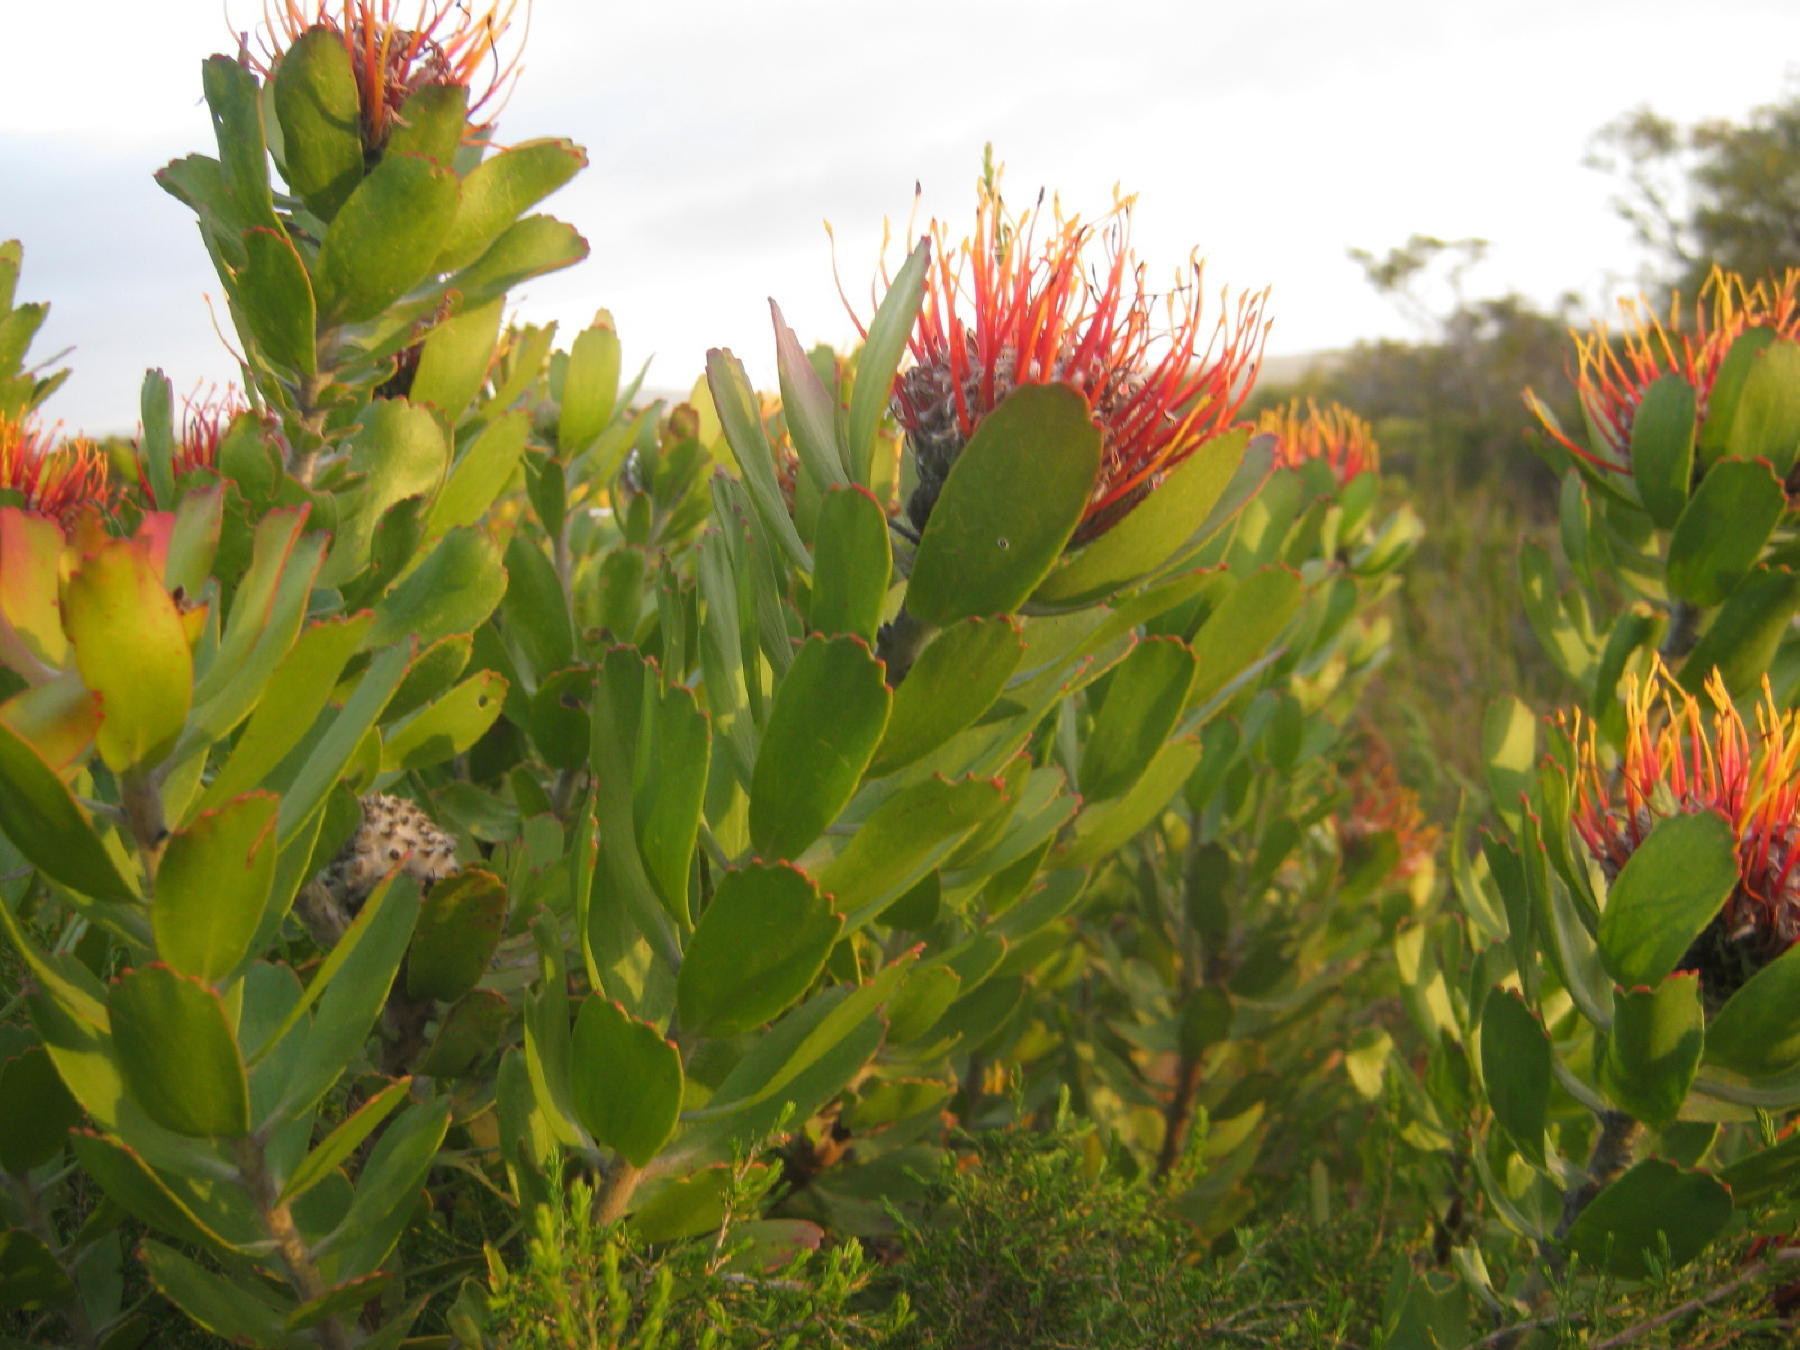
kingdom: Plantae
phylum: Tracheophyta
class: Magnoliopsida
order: Proteales
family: Proteaceae
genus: Leucospermum
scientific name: Leucospermum praecox
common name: Mossel bay pincushion
